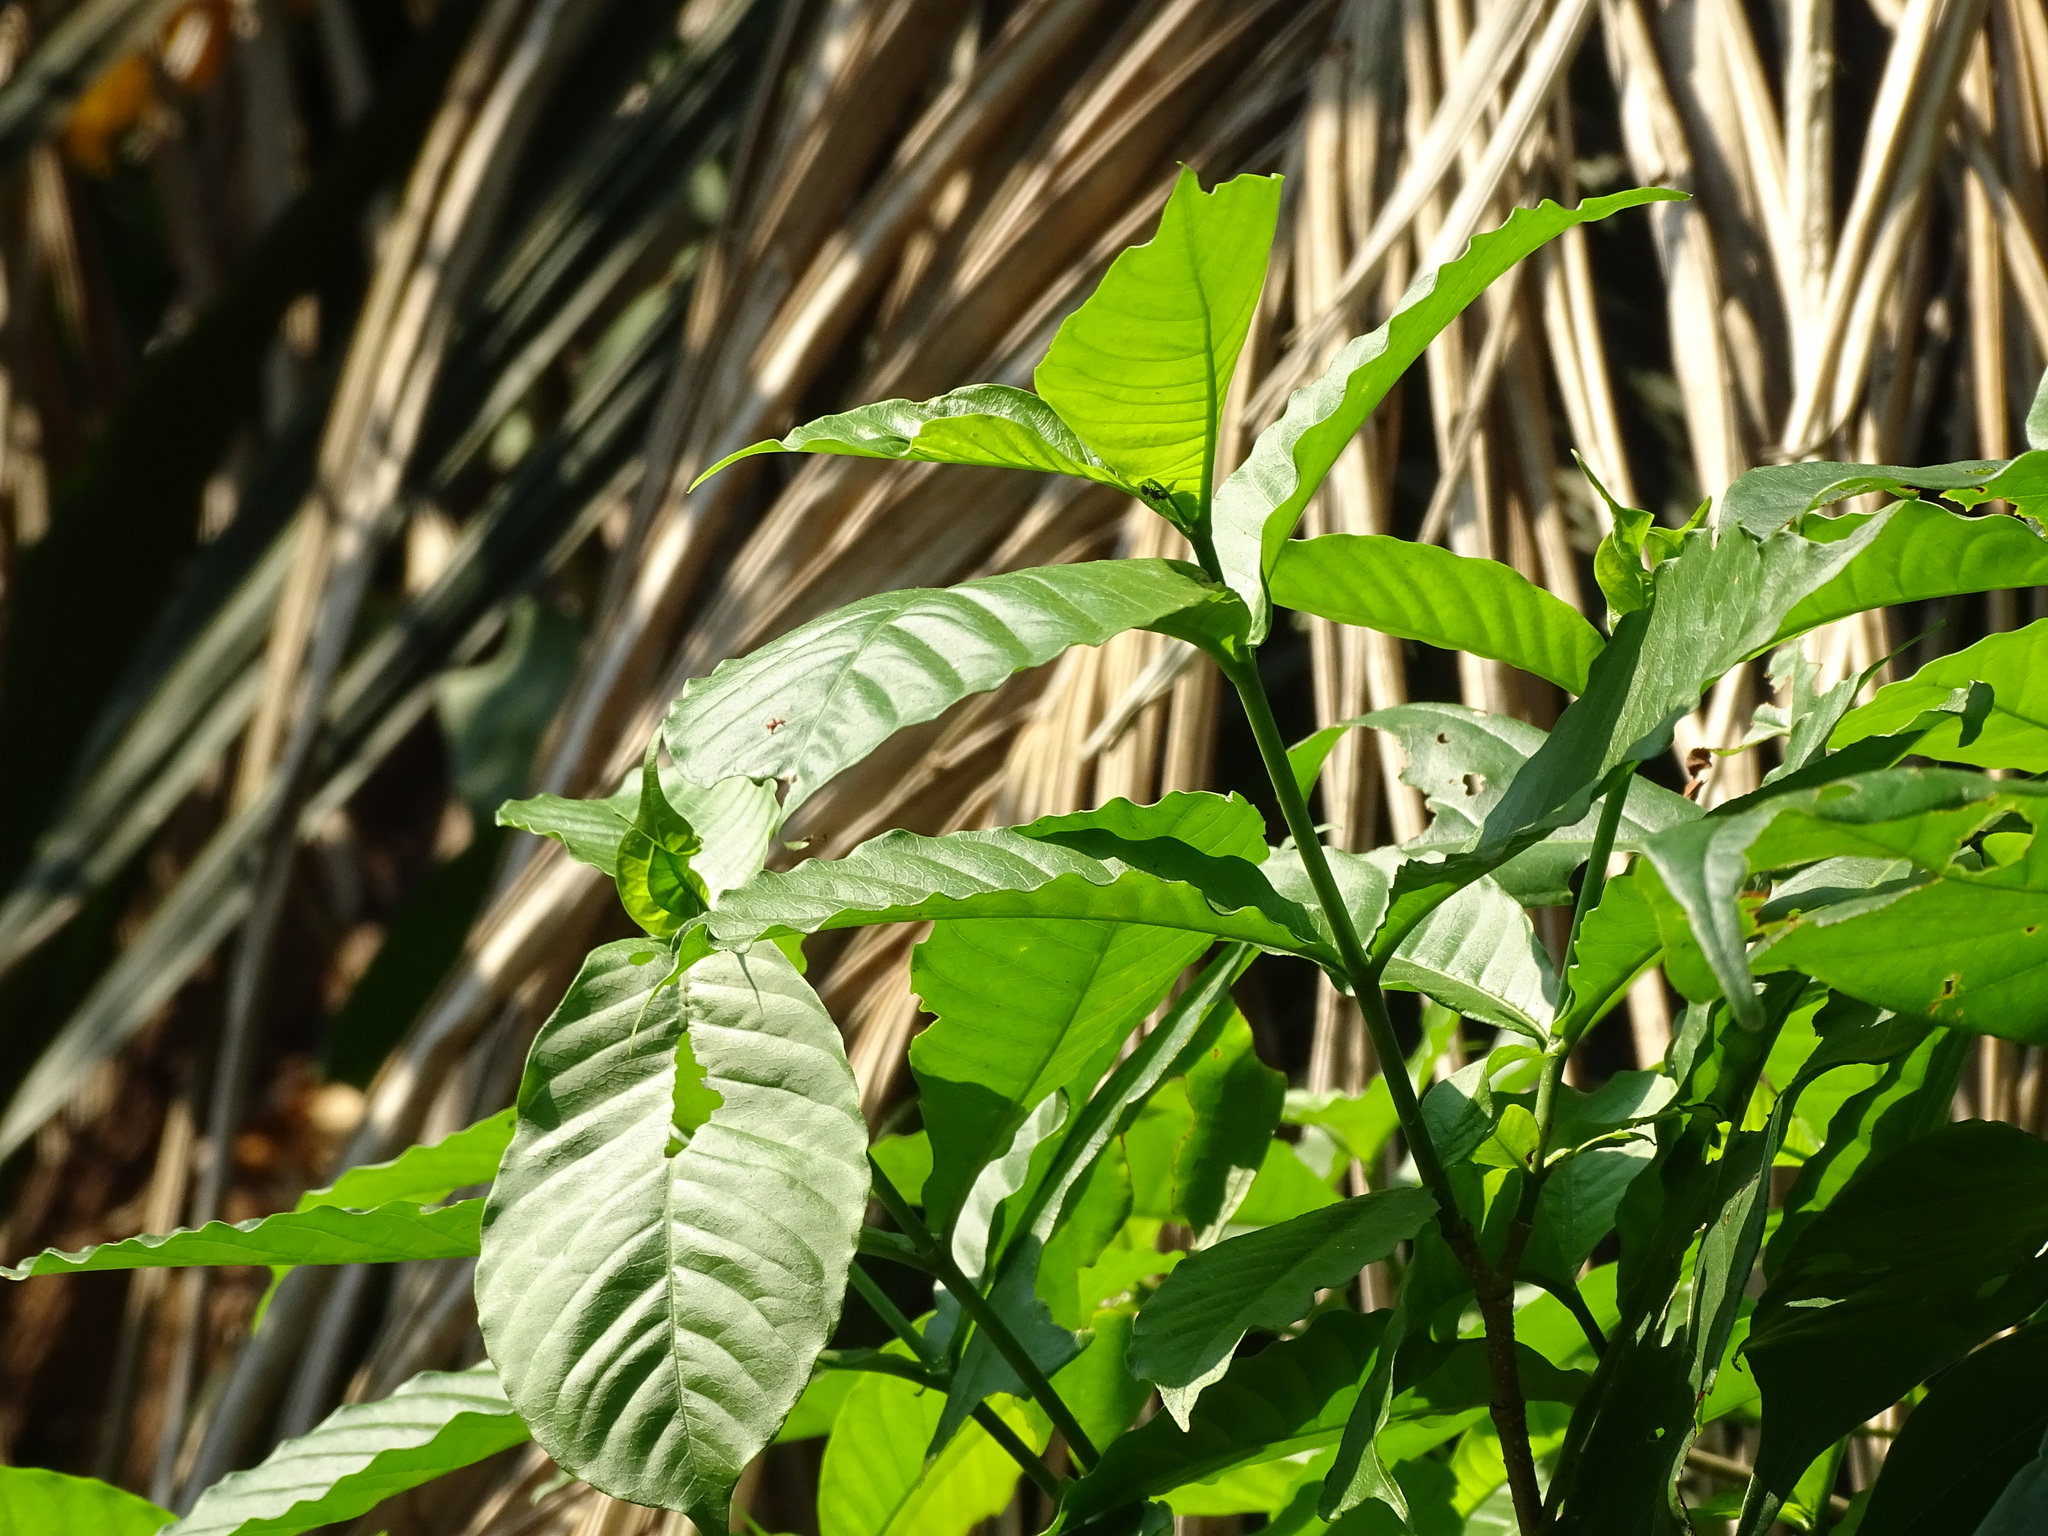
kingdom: Plantae
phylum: Tracheophyta
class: Magnoliopsida
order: Gentianales
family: Apocynaceae
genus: Tabernaemontana
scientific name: Tabernaemontana donnell-smithii
